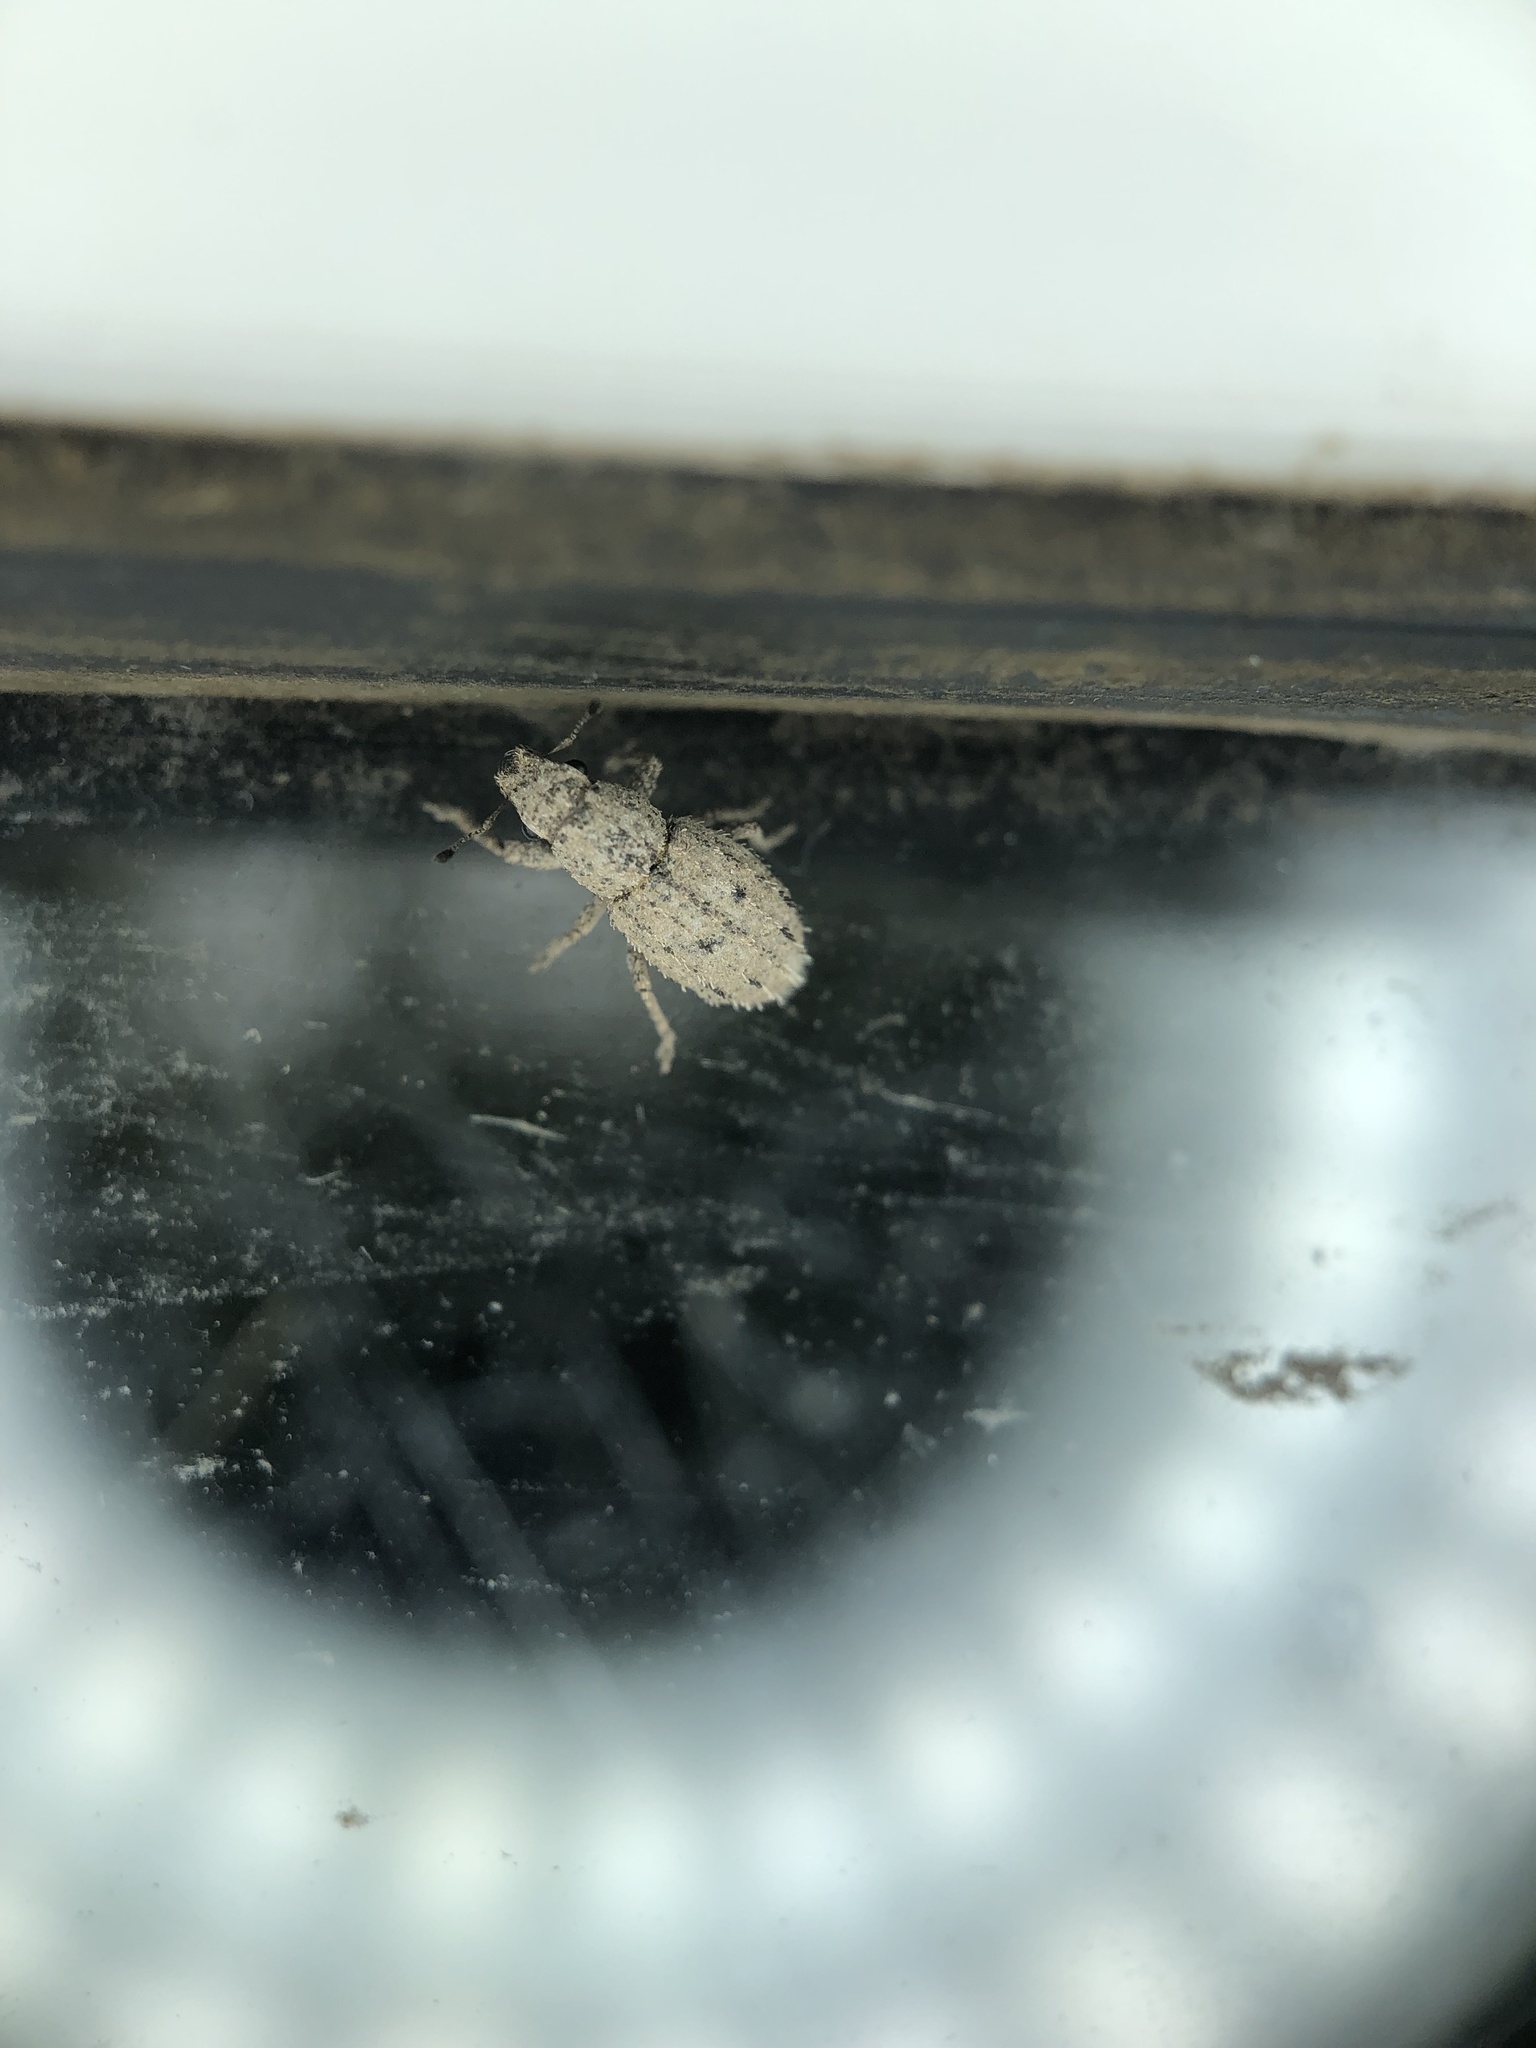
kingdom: Animalia
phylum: Arthropoda
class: Insecta
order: Coleoptera
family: Curculionidae
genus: Floresianus
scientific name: Floresianus sordidus
